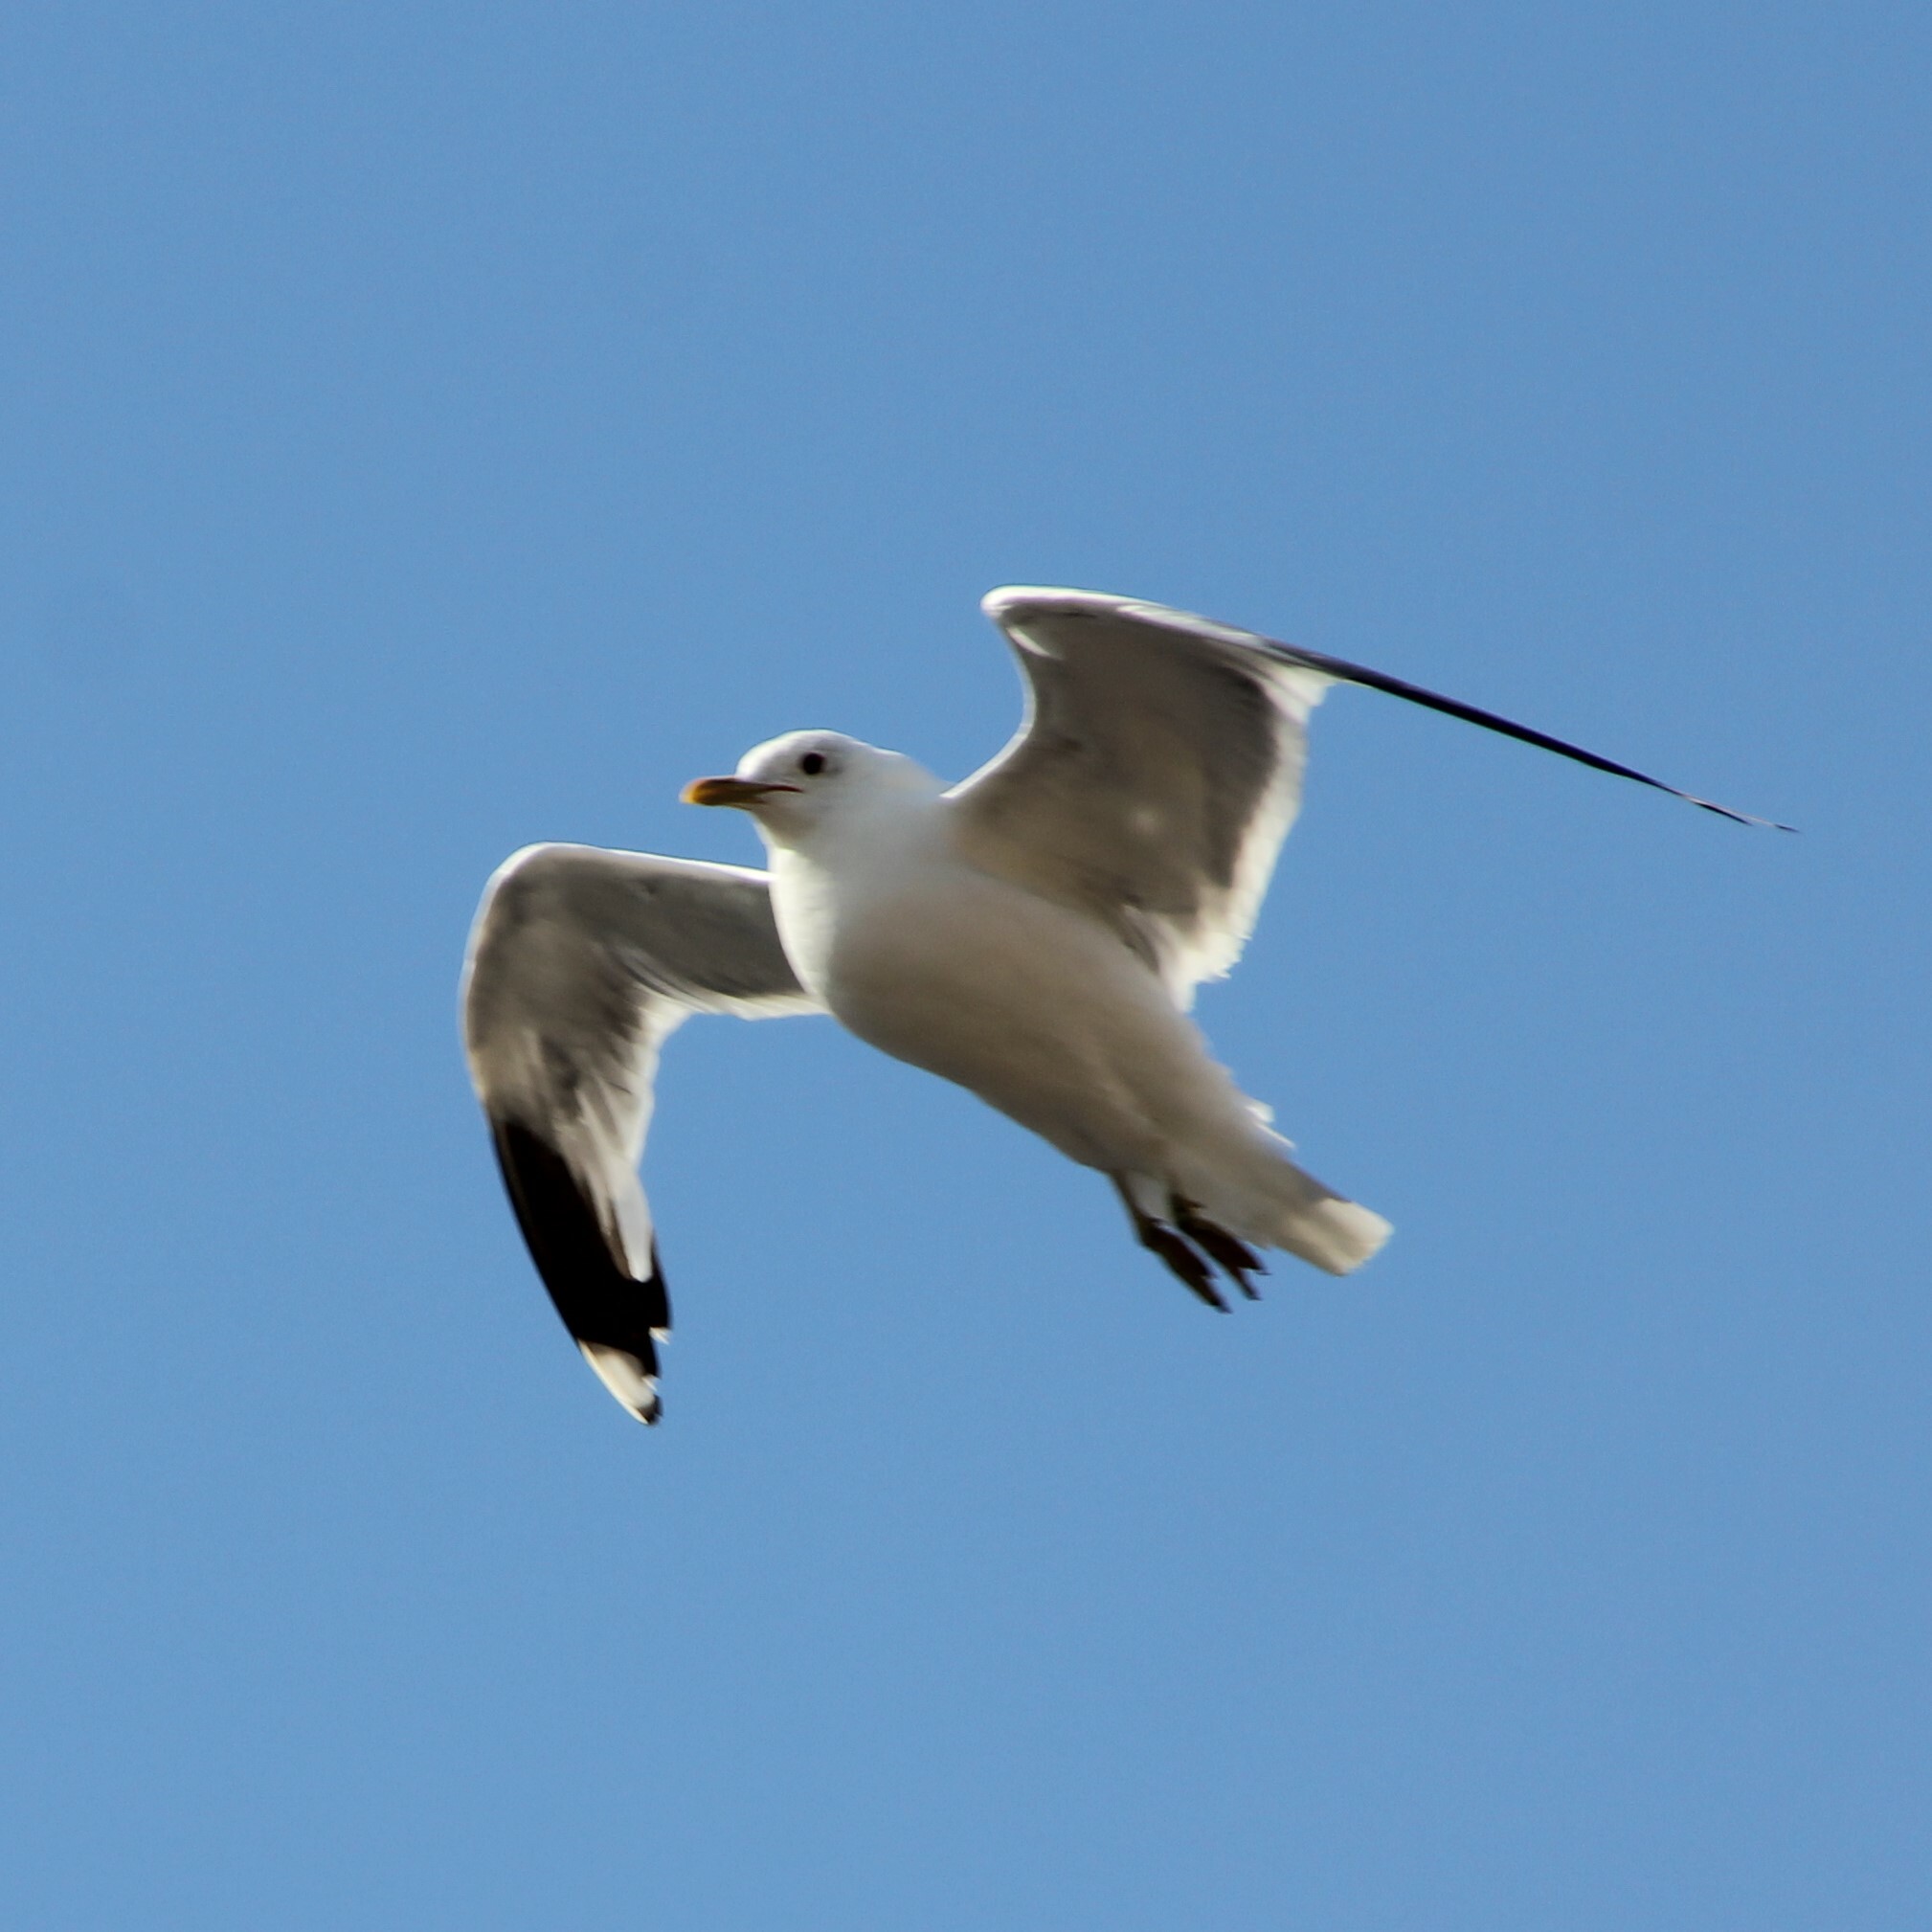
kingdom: Animalia
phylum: Chordata
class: Aves
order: Charadriiformes
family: Laridae
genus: Larus
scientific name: Larus canus
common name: Mew gull
